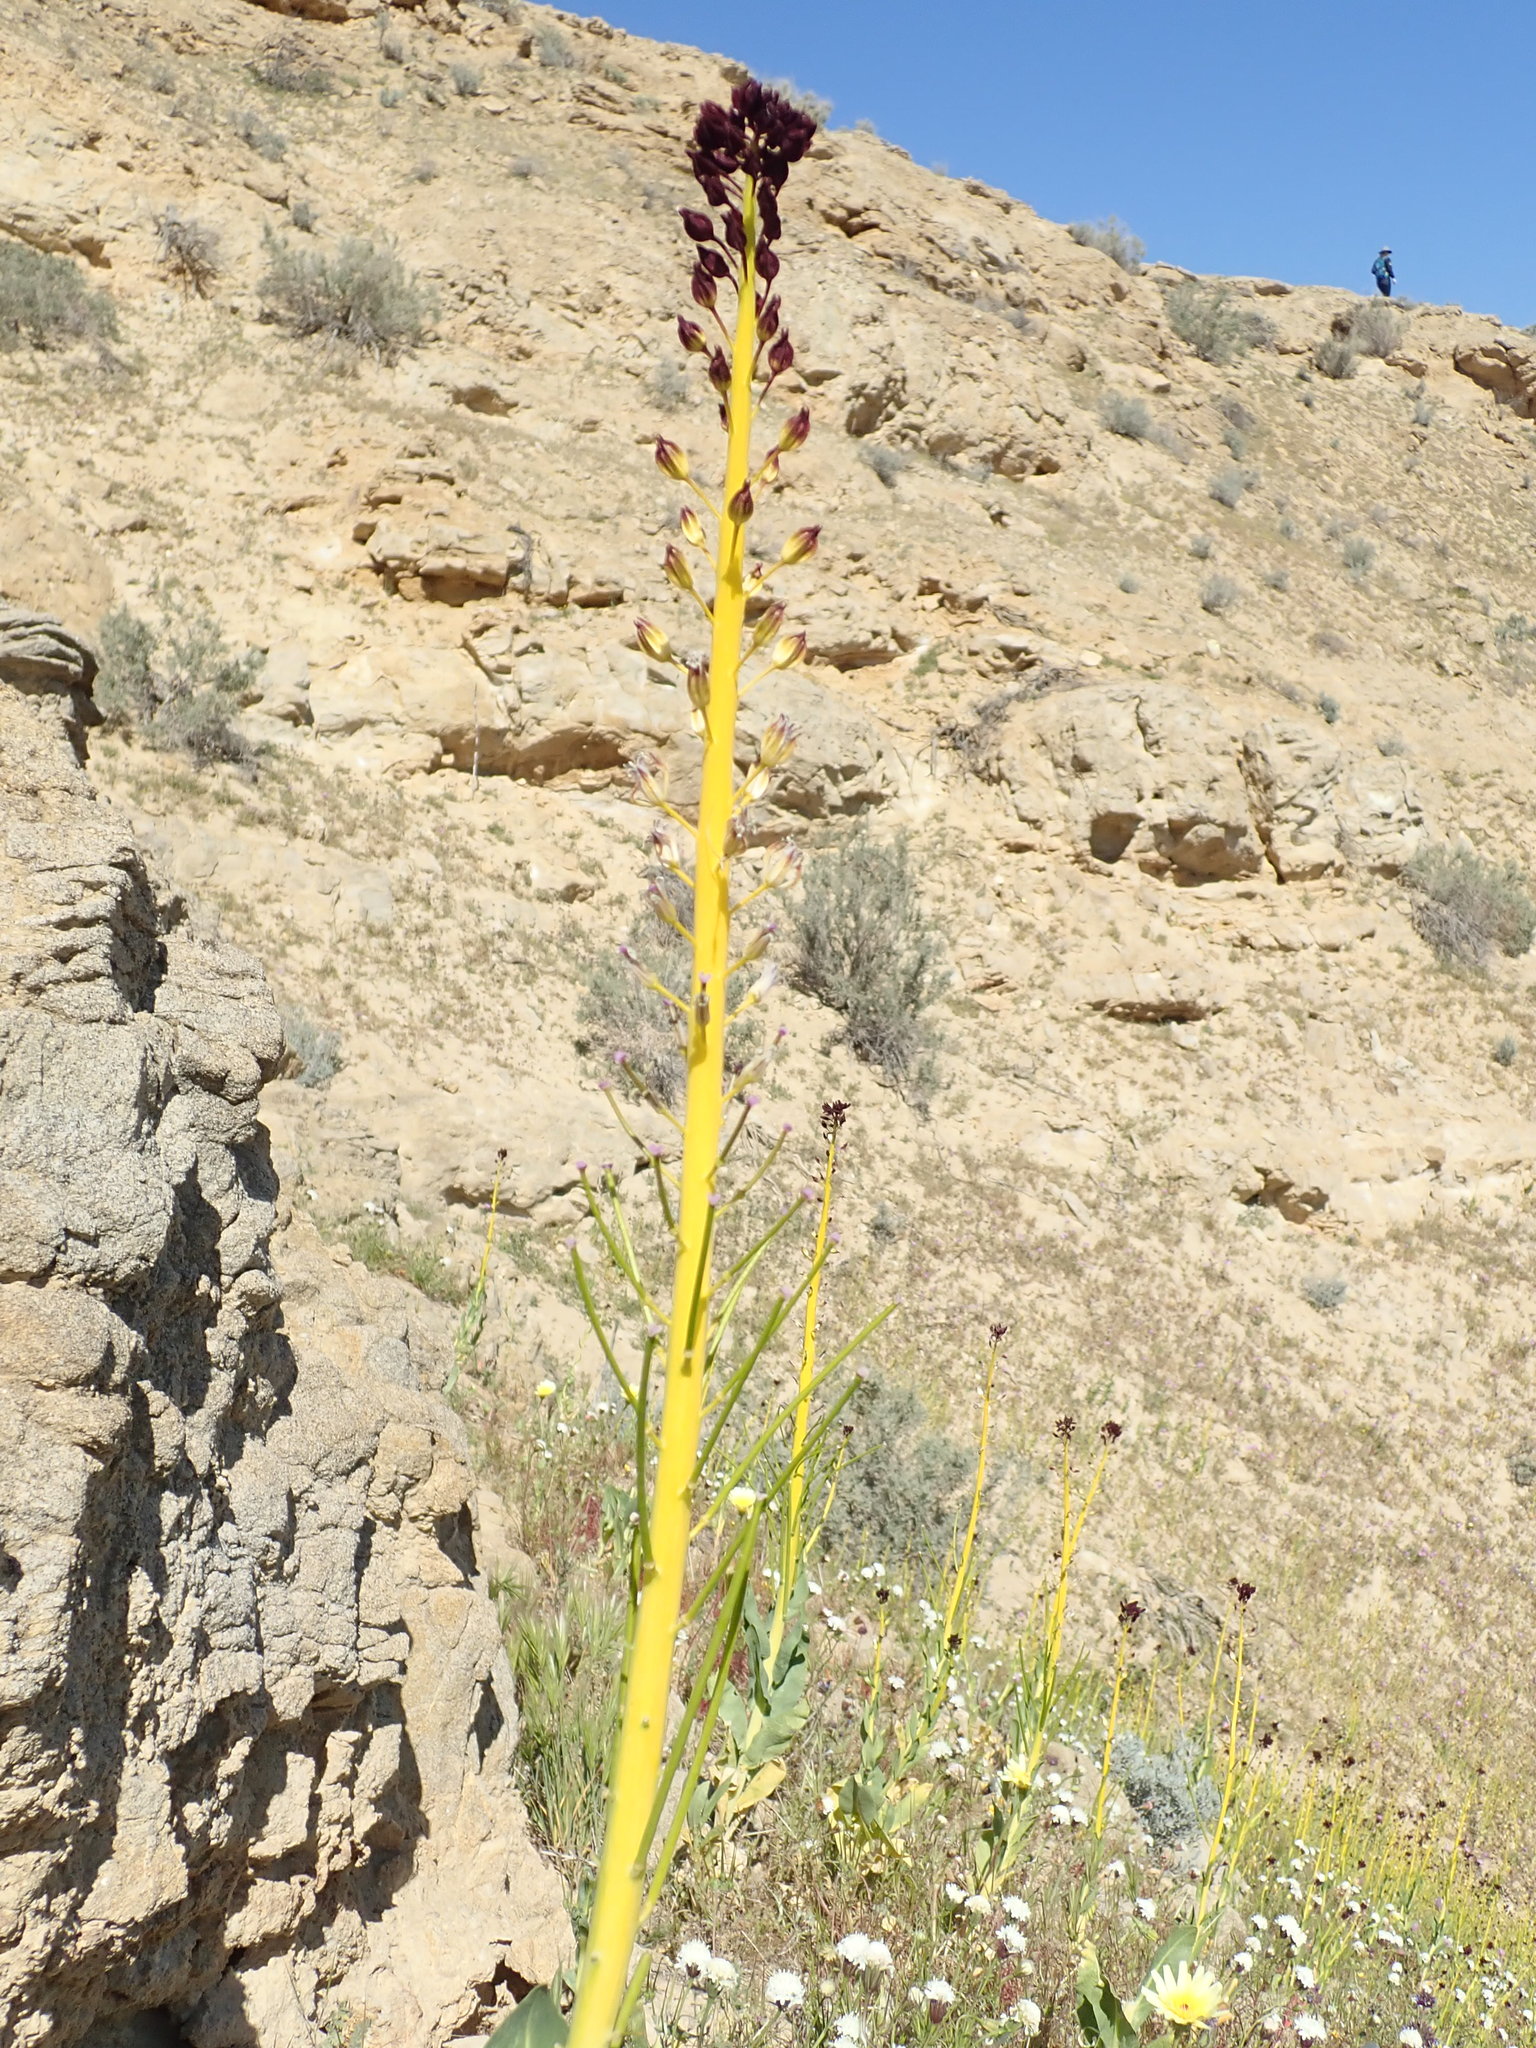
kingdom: Plantae
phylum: Tracheophyta
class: Magnoliopsida
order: Brassicales
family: Brassicaceae
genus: Streptanthus
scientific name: Streptanthus inflatus
